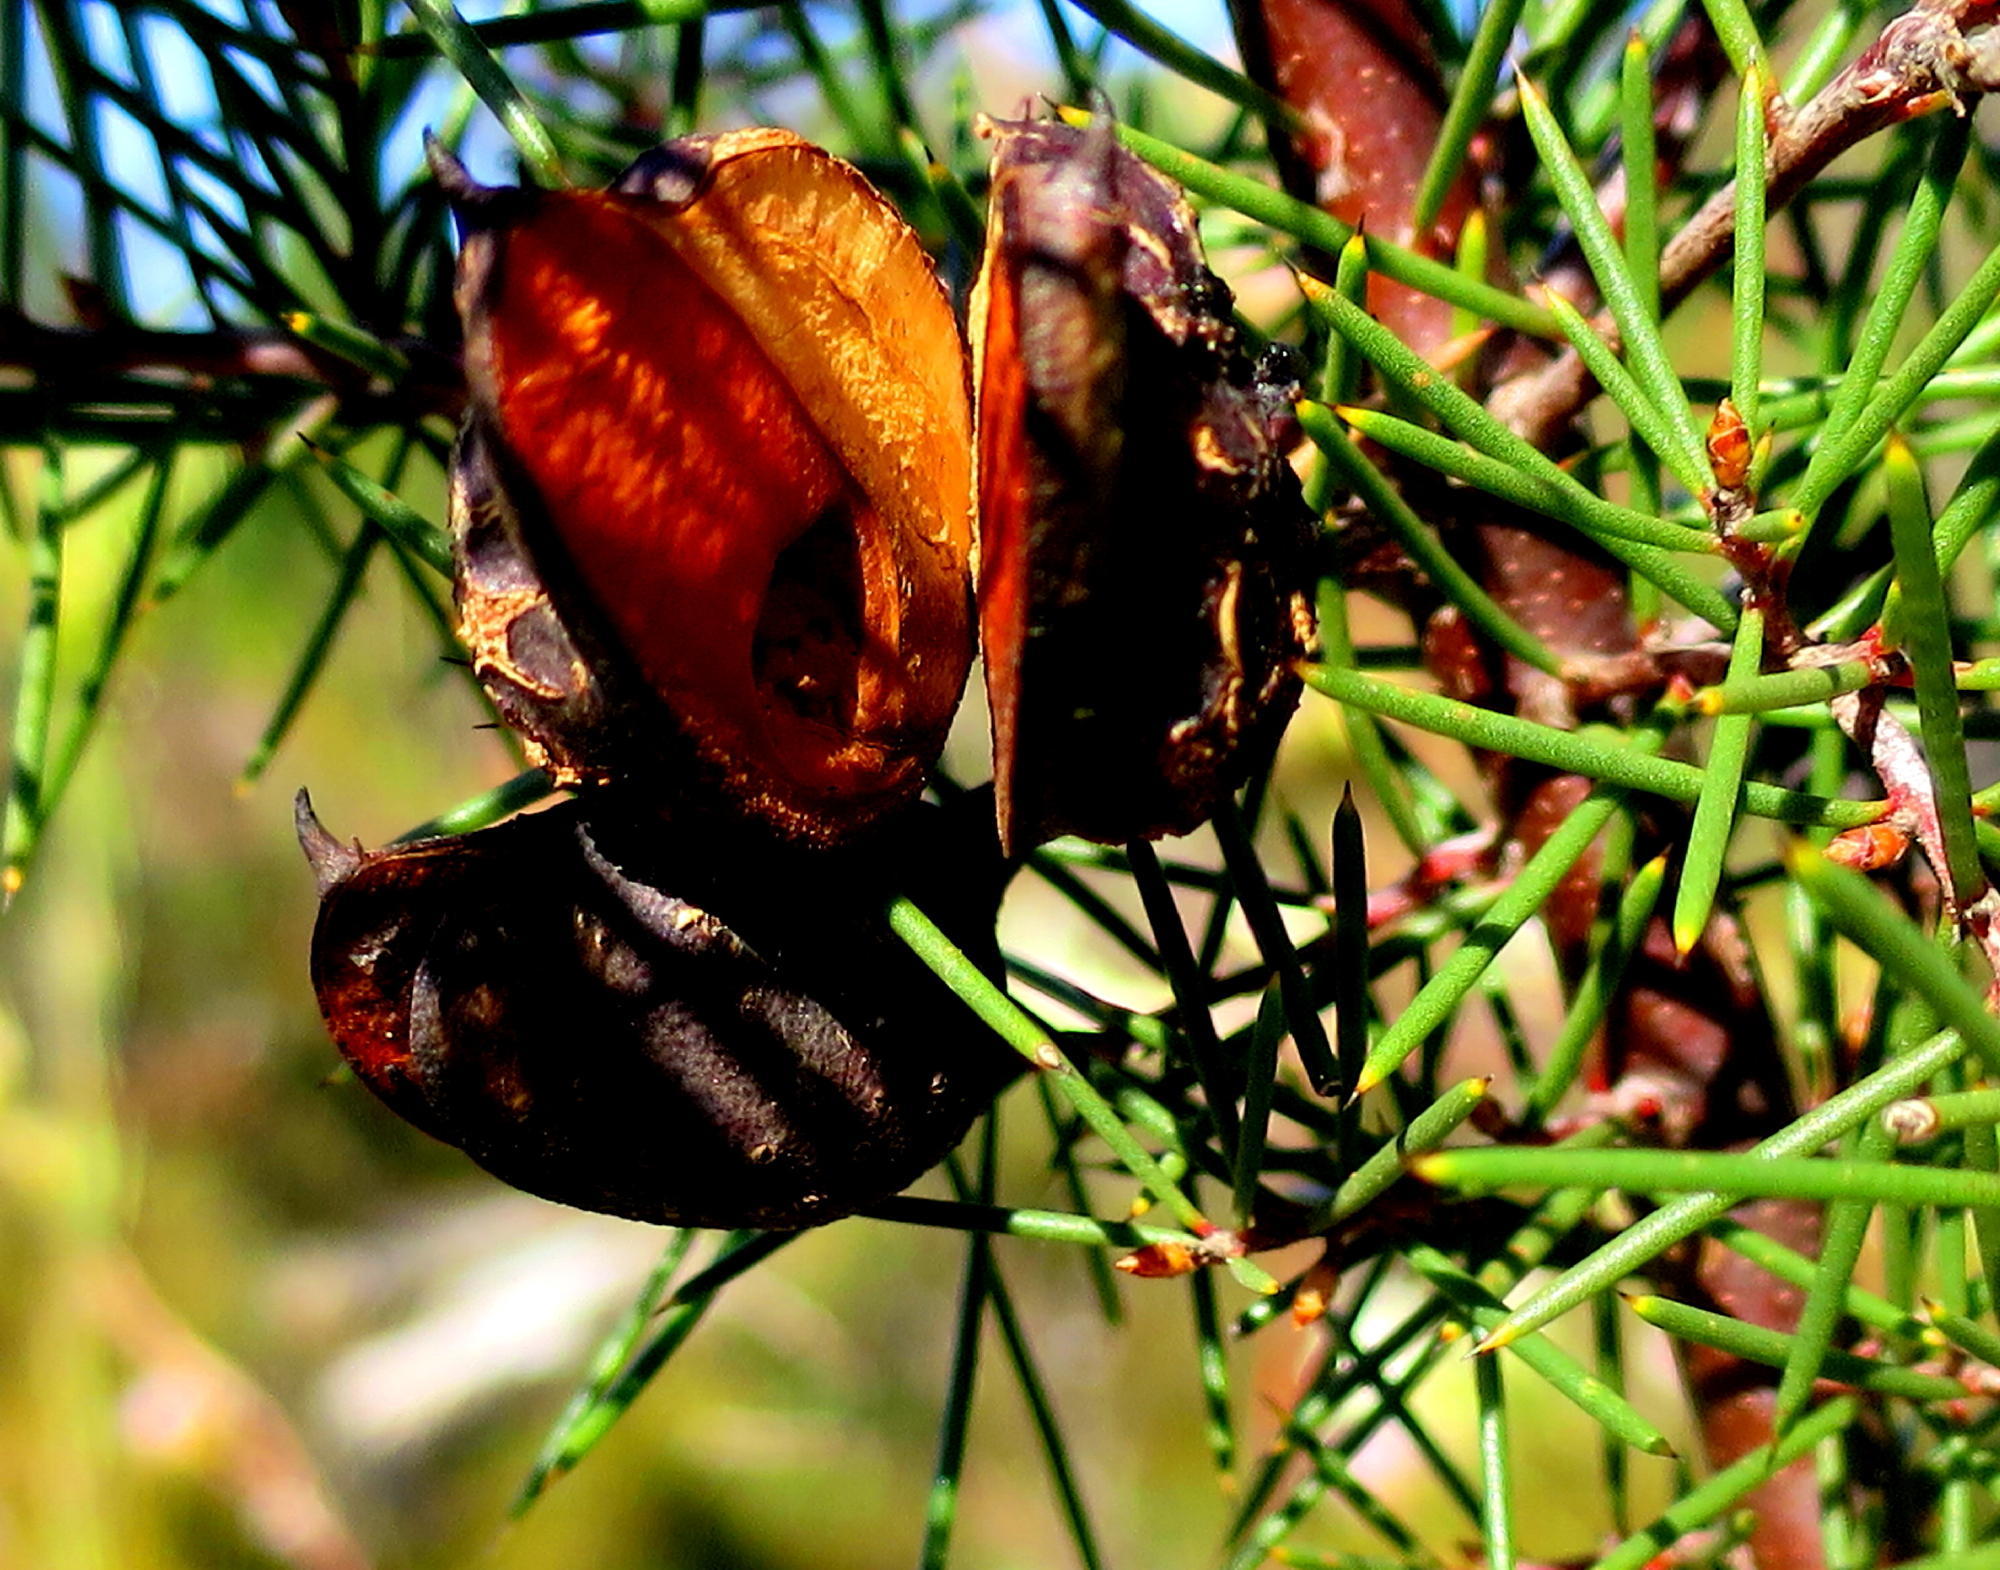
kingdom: Plantae
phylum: Tracheophyta
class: Magnoliopsida
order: Proteales
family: Proteaceae
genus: Hakea
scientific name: Hakea sericea
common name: Needle bush
